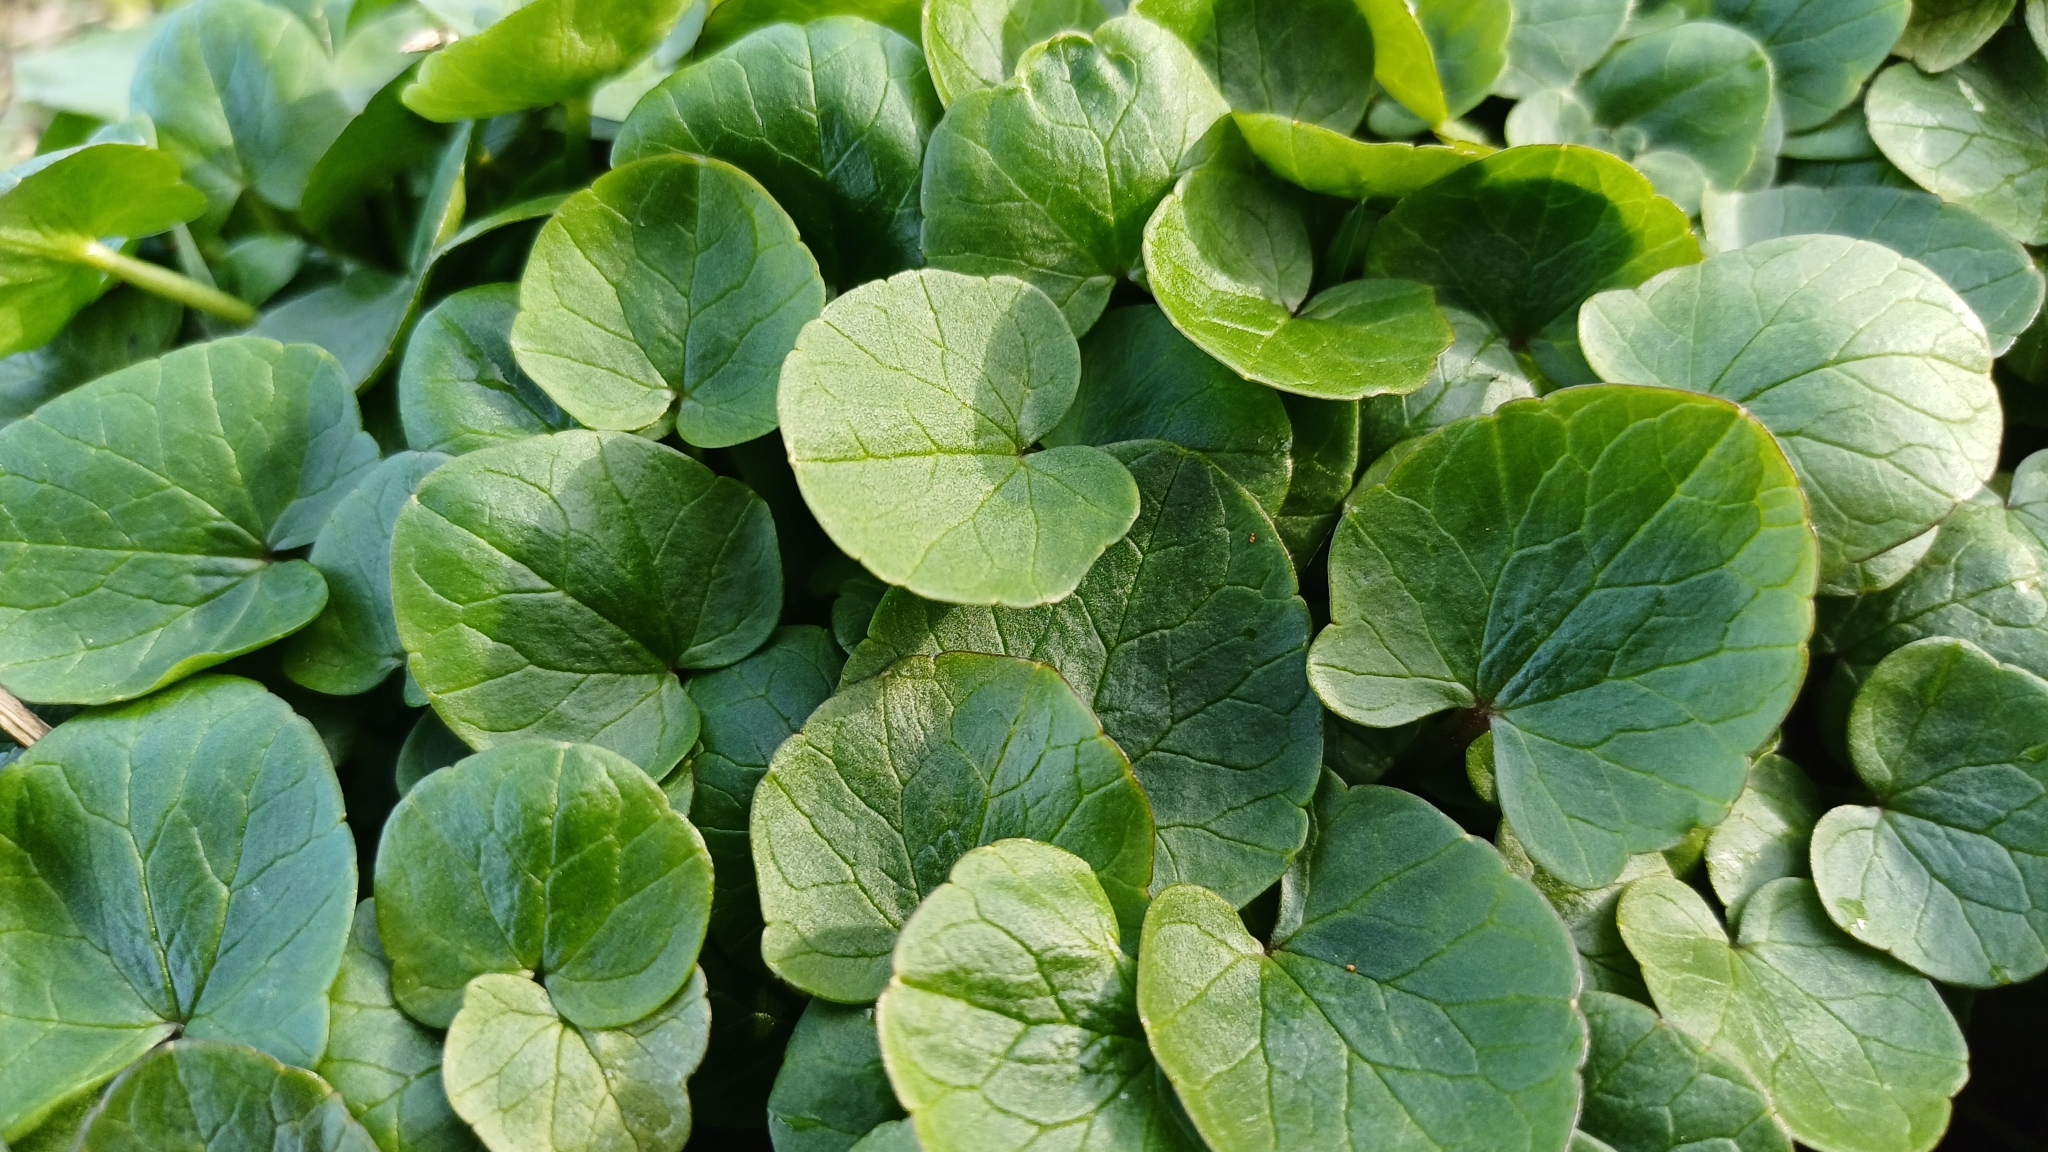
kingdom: Plantae
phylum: Tracheophyta
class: Magnoliopsida
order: Ranunculales
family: Ranunculaceae
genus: Ficaria
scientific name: Ficaria verna
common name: Lesser celandine
